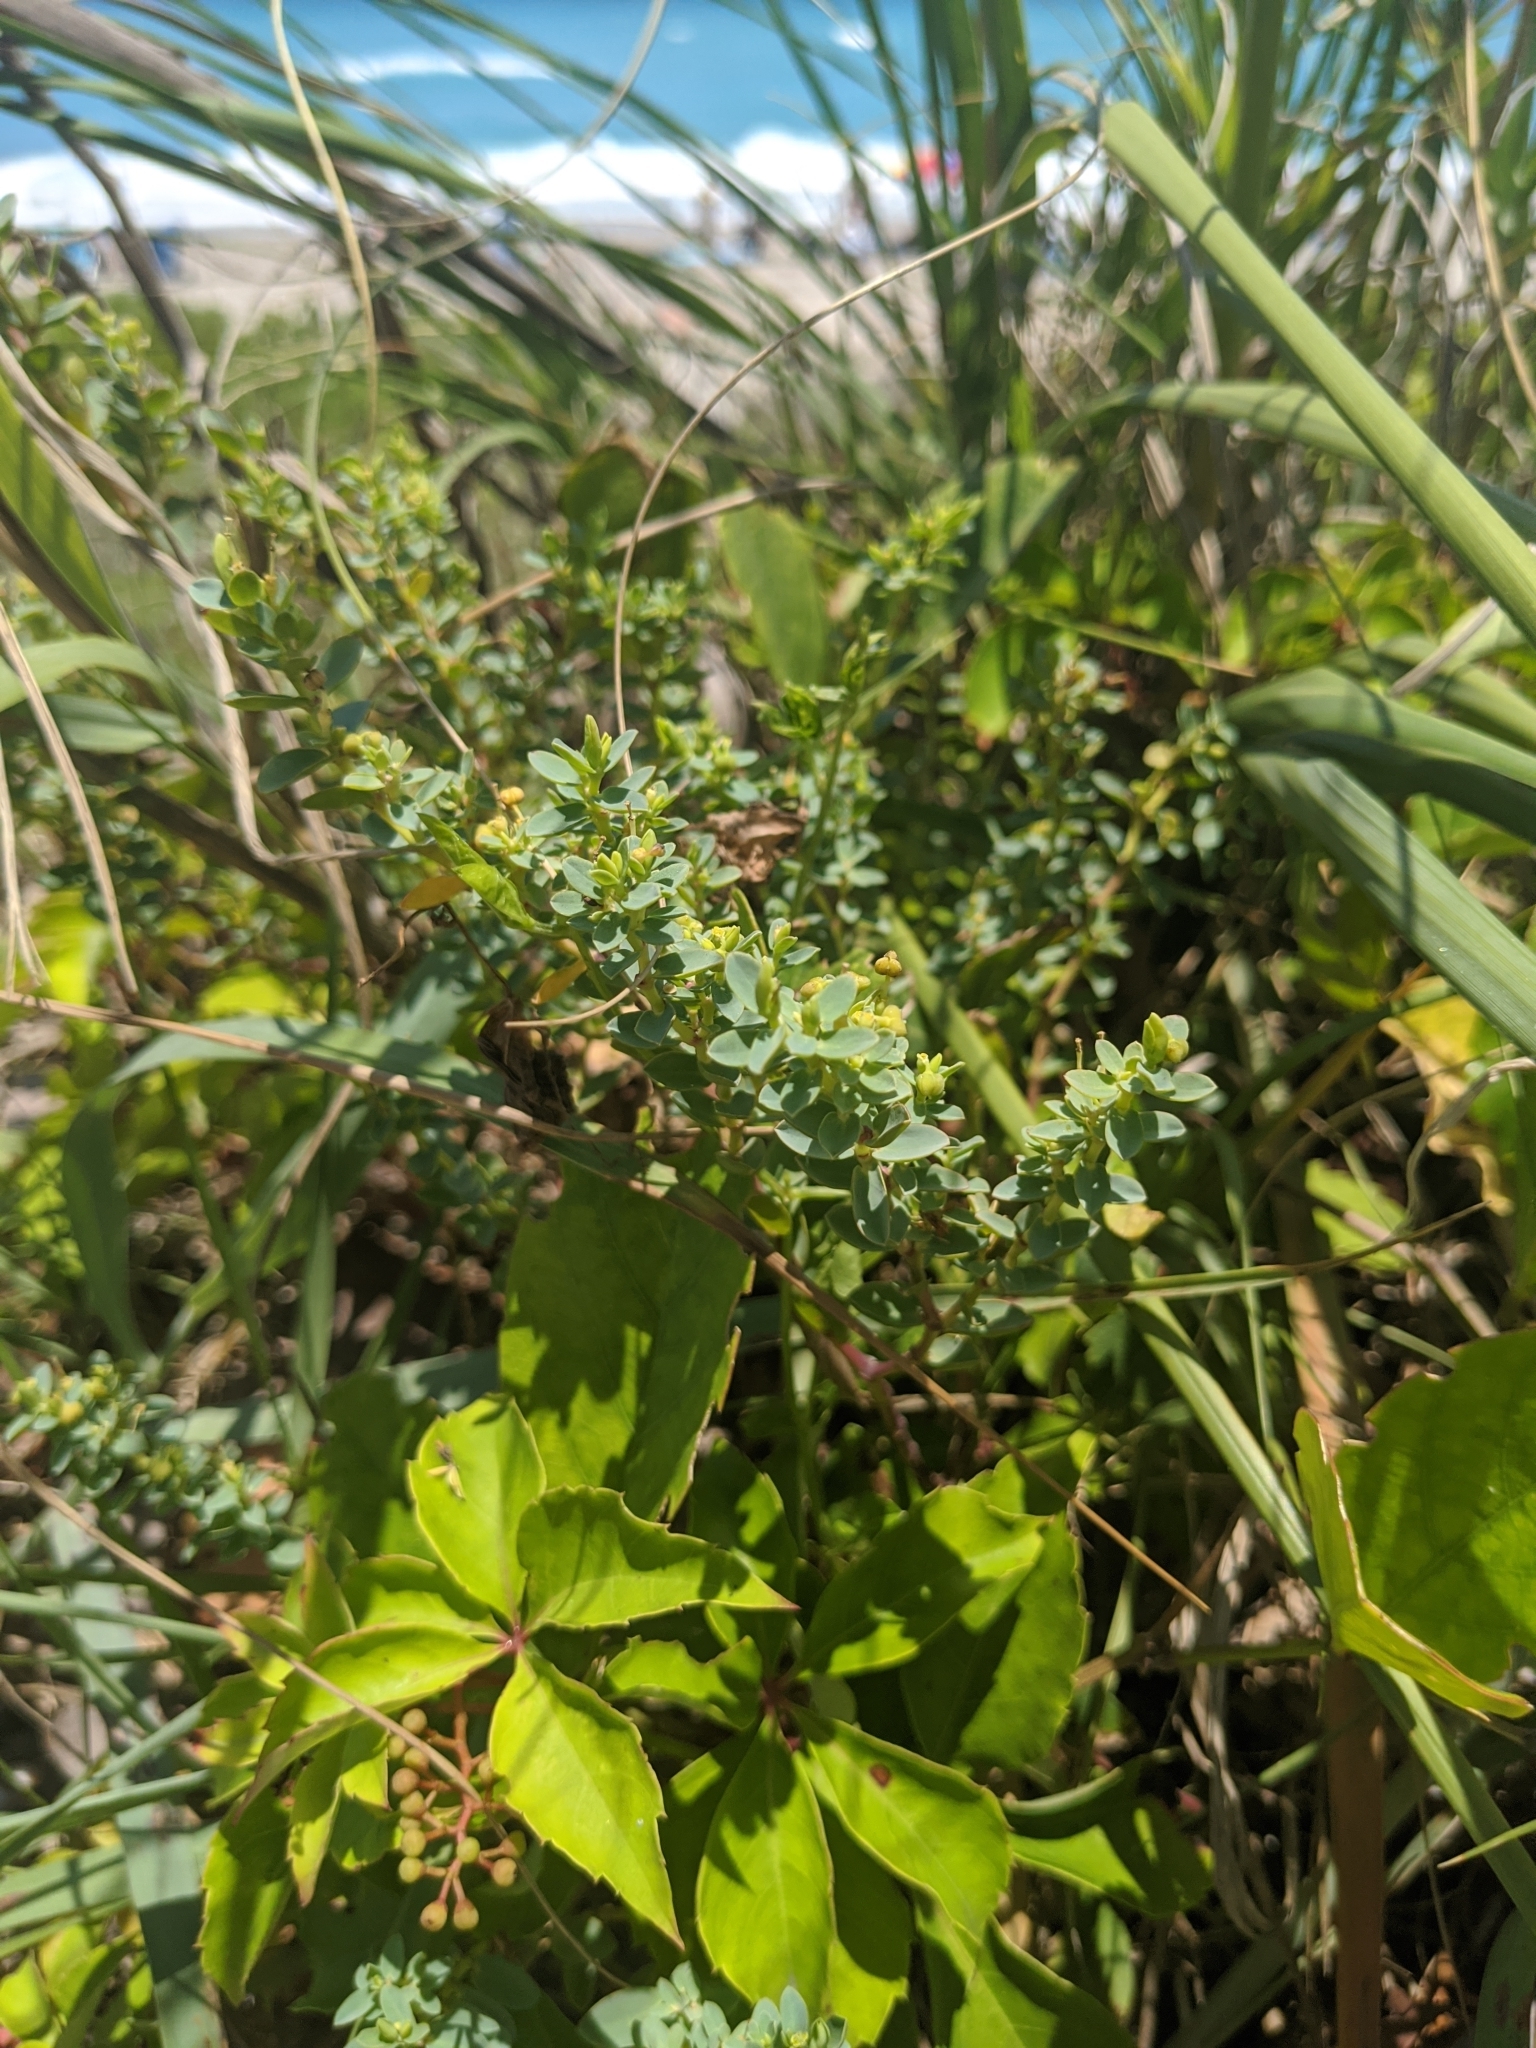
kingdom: Plantae
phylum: Tracheophyta
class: Magnoliopsida
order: Malpighiales
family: Euphorbiaceae
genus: Euphorbia
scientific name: Euphorbia mesembryanthemifolia
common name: Coastal beach sandmat
